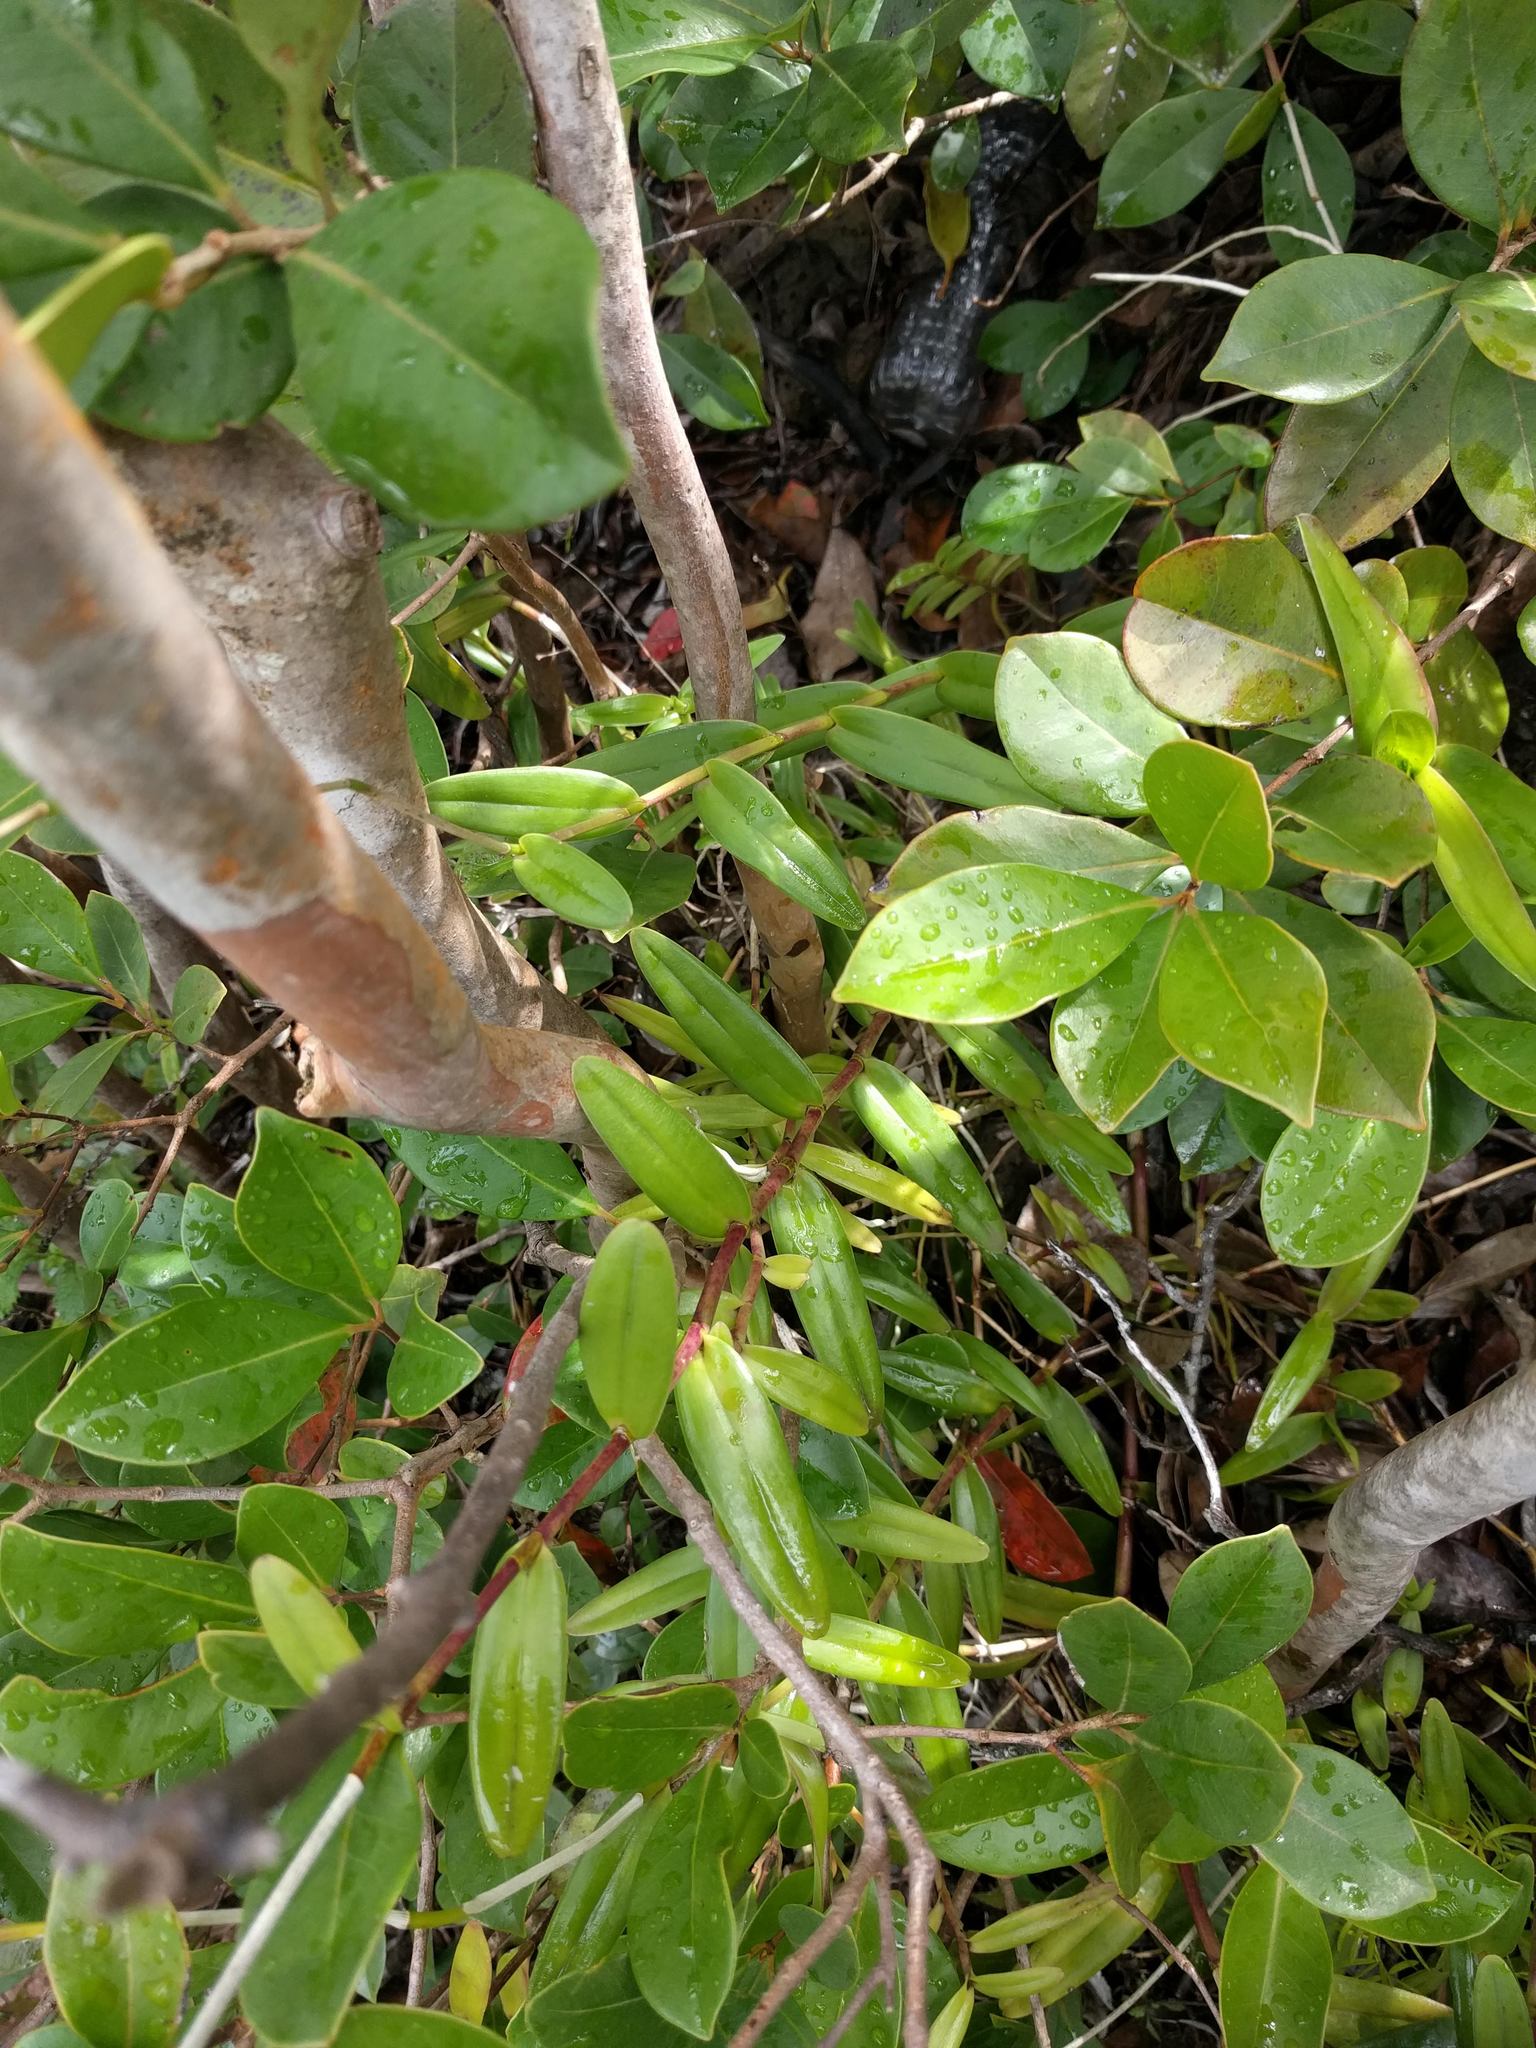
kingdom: Plantae
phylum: Tracheophyta
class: Liliopsida
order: Asparagales
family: Orchidaceae
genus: Epidendrum
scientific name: Epidendrum obrienianum
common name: O'brien's star orchid
